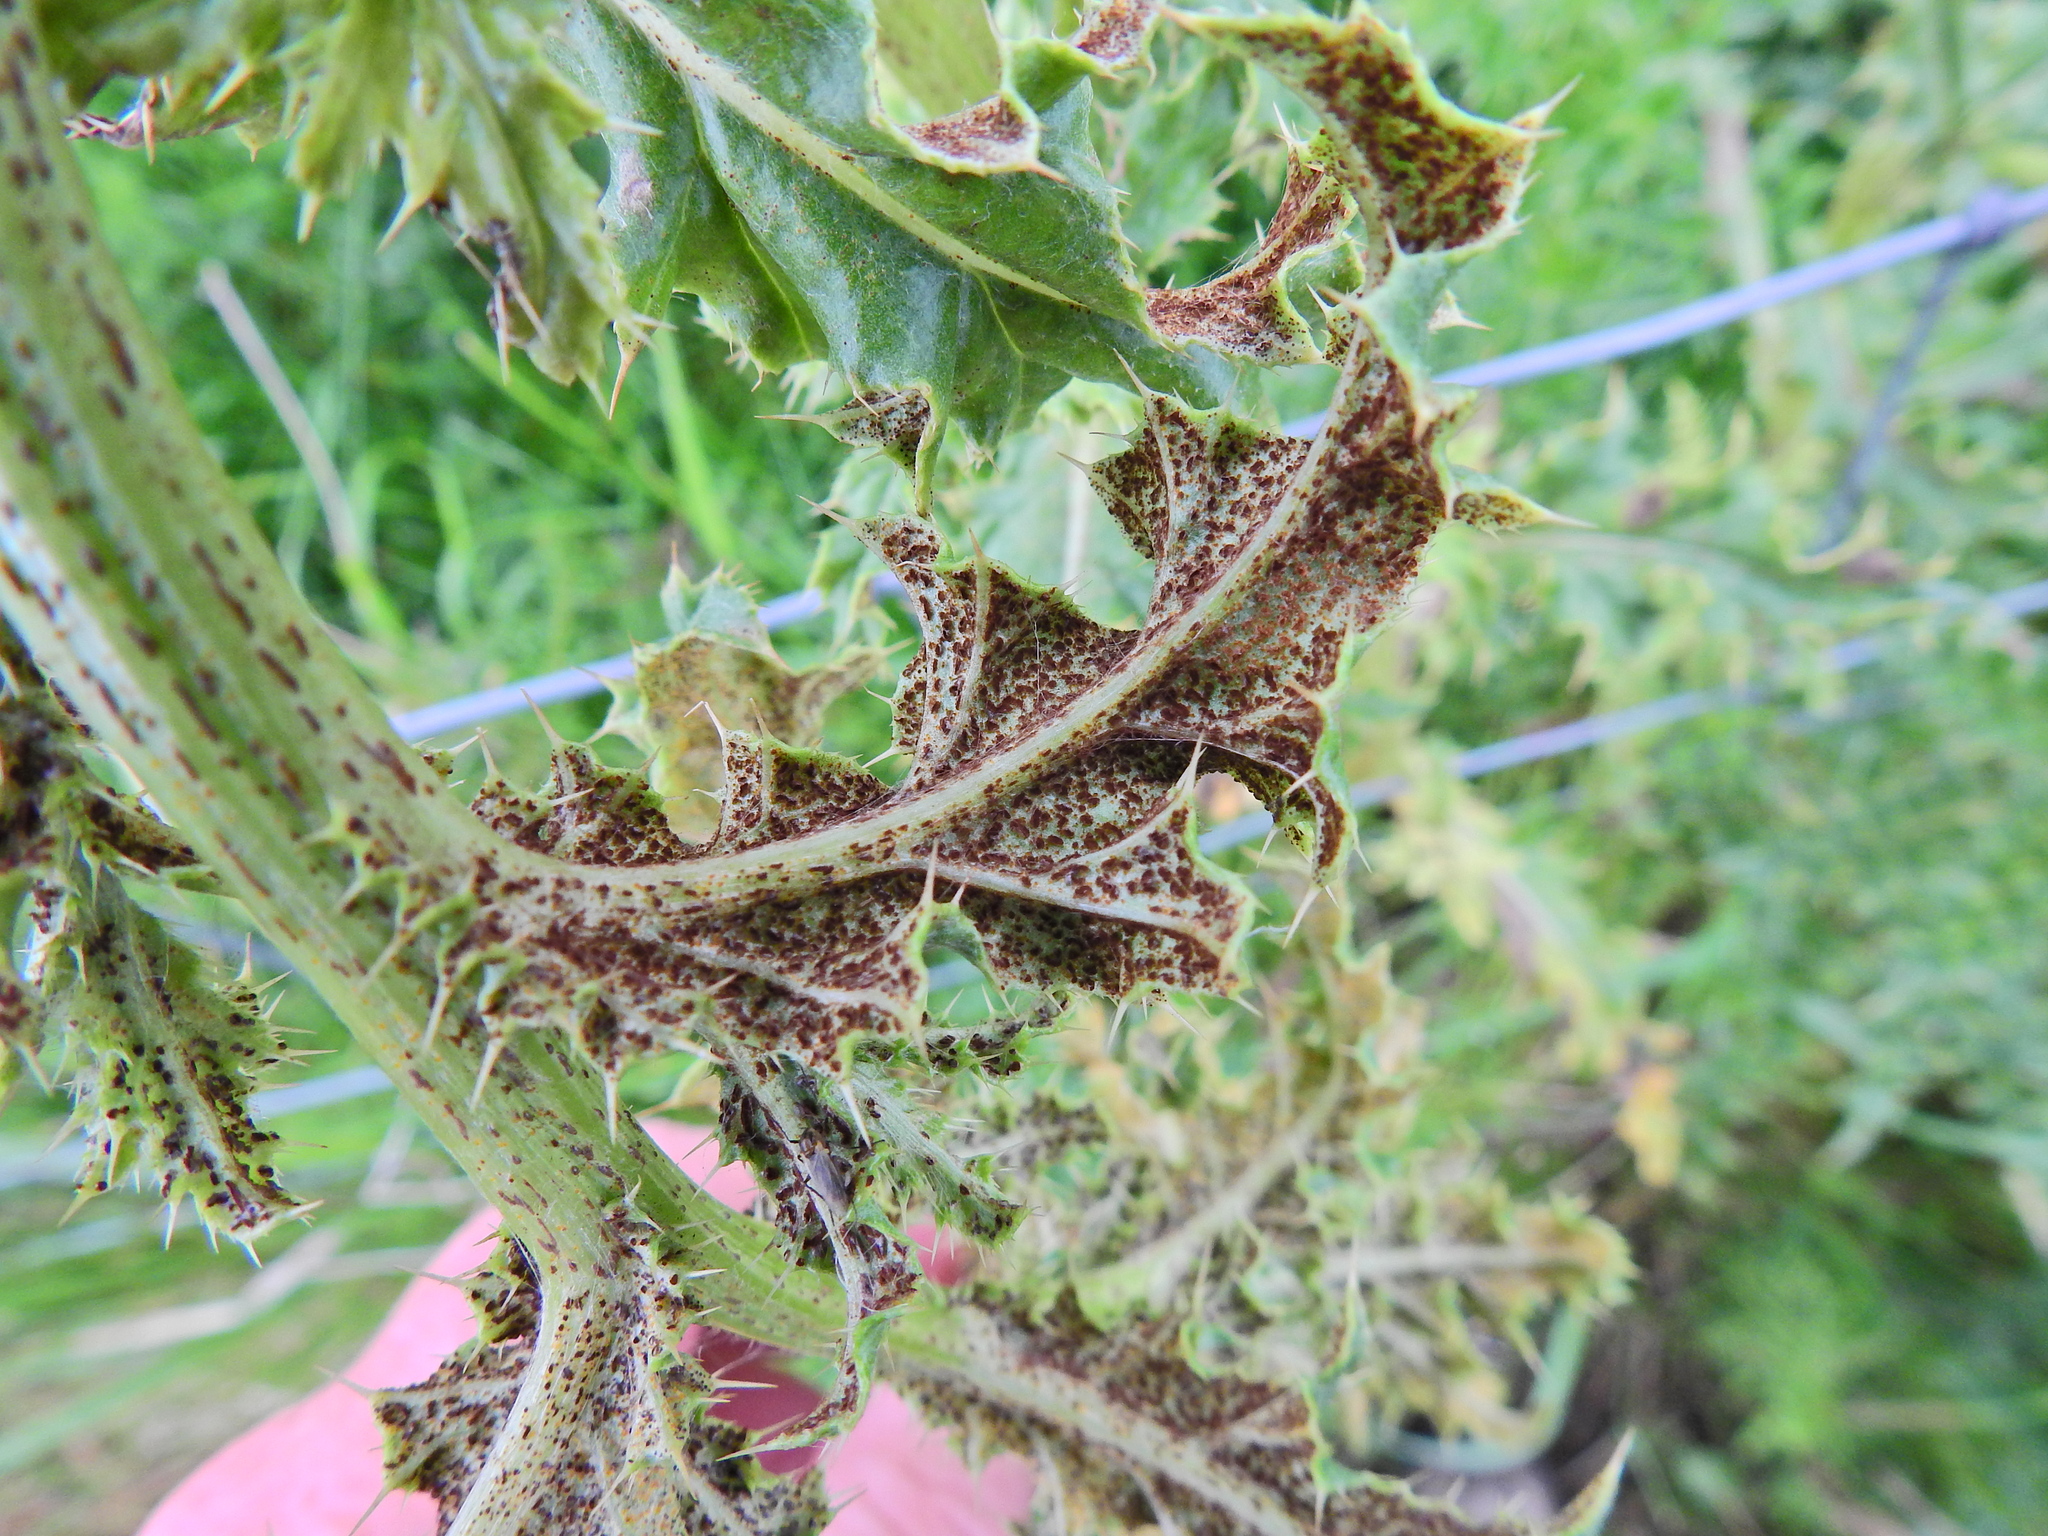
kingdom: Fungi
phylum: Basidiomycota
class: Pucciniomycetes
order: Pucciniales
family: Pucciniaceae
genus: Puccinia
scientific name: Puccinia suaveolens
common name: Thistle rust
